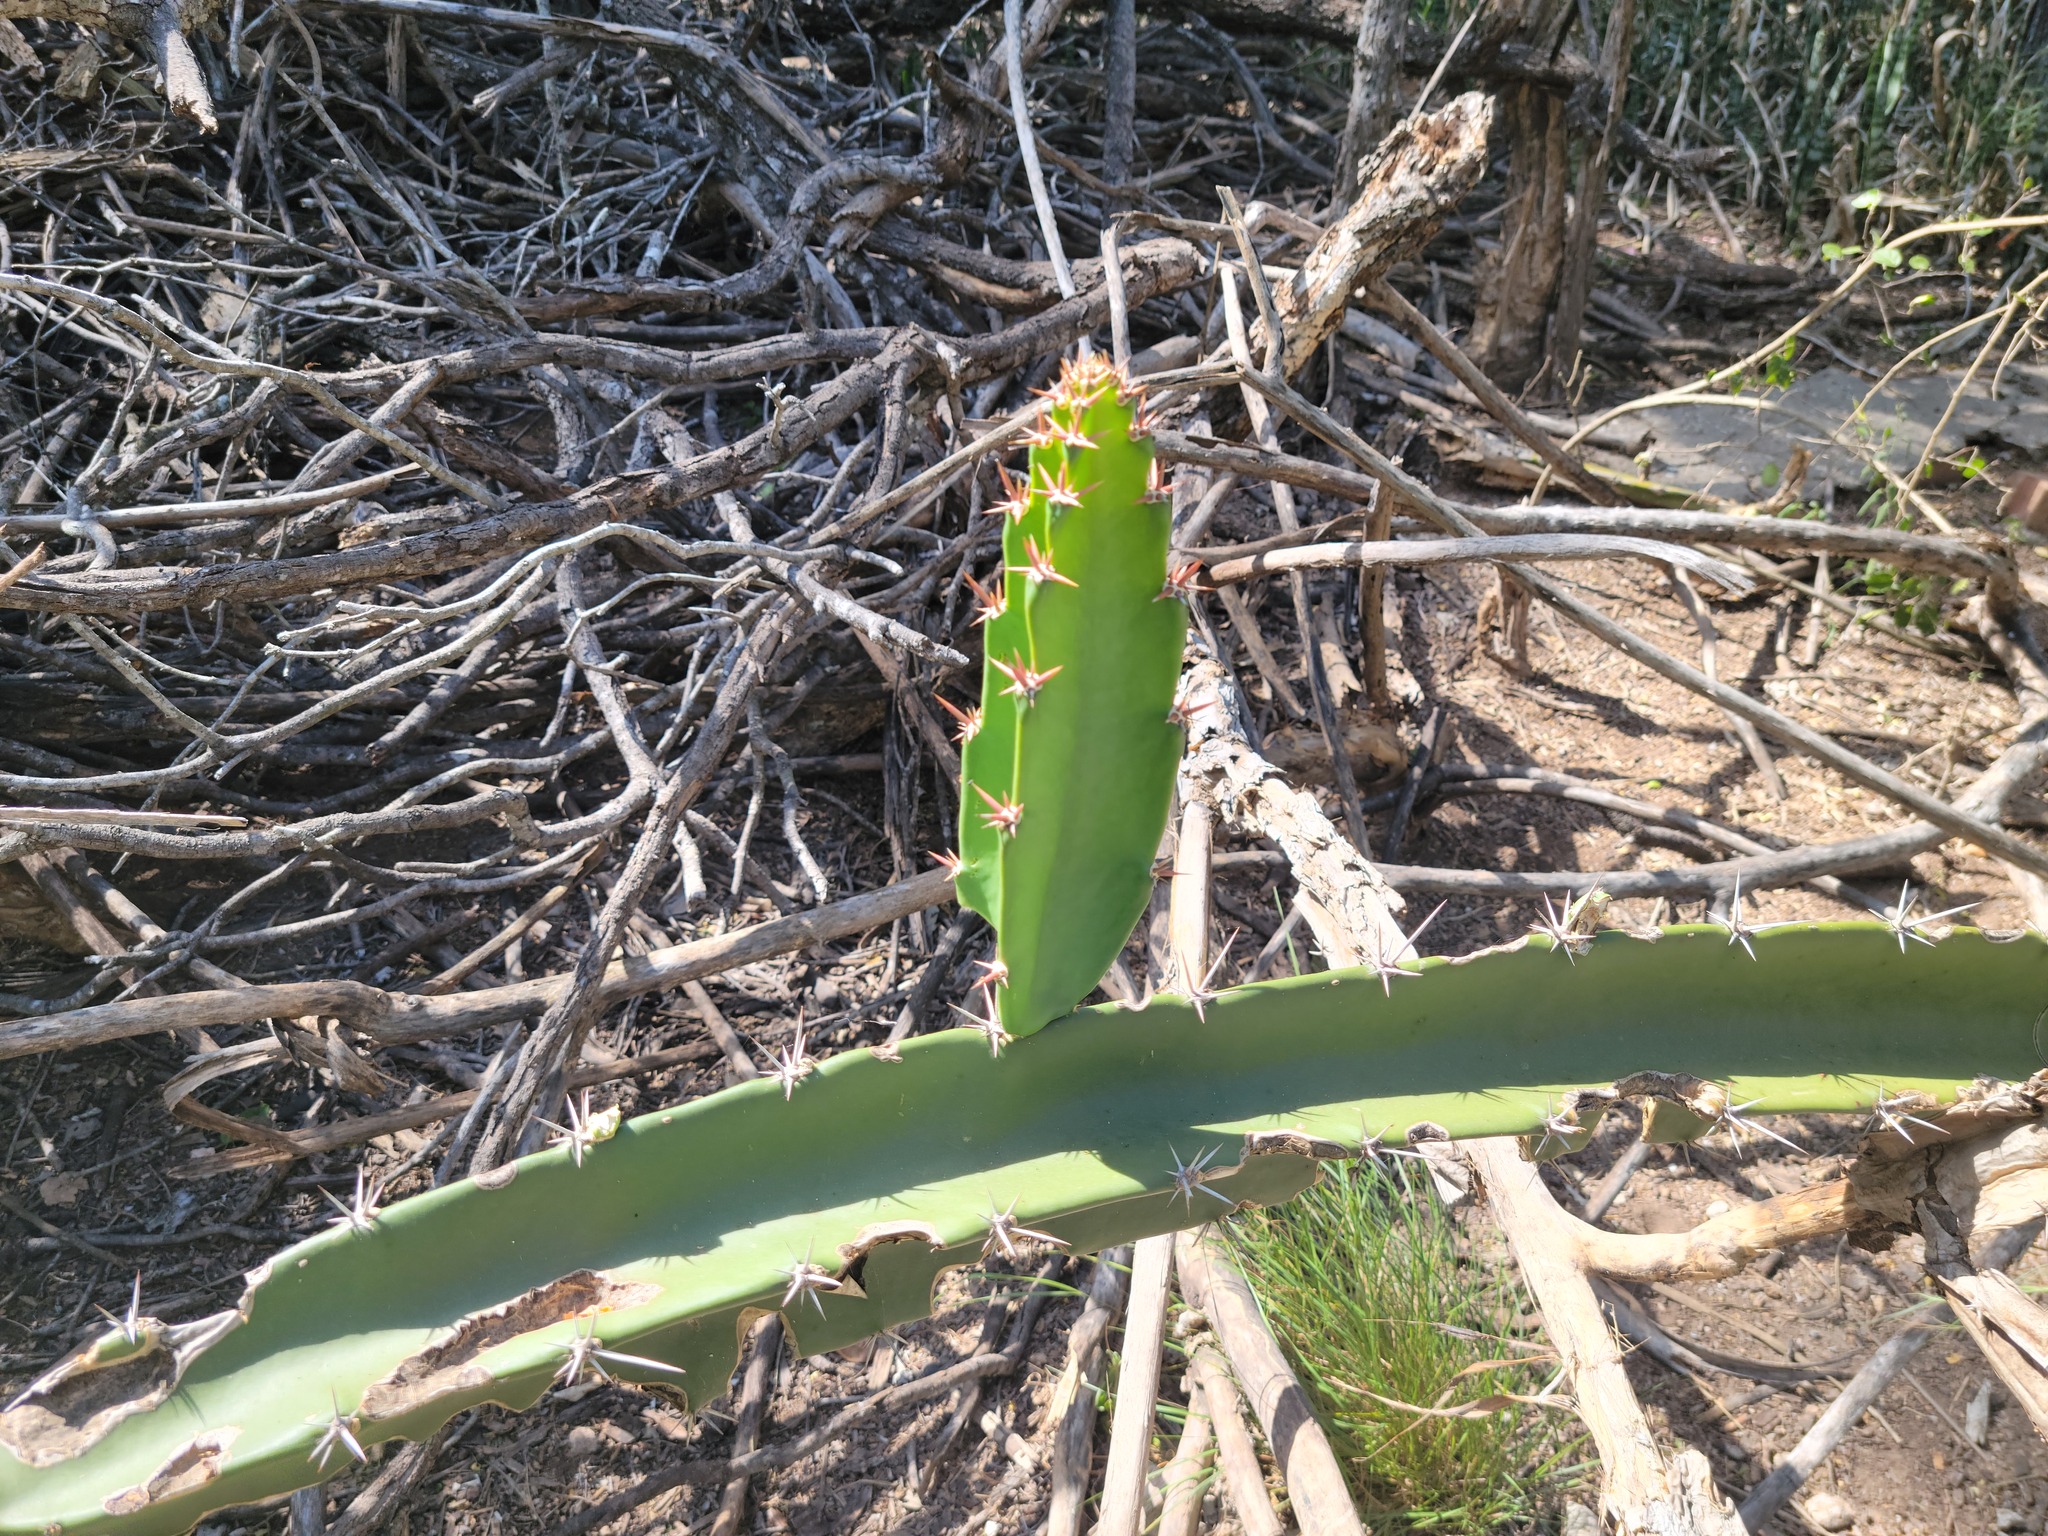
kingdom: Plantae
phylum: Tracheophyta
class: Magnoliopsida
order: Caryophyllales
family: Cactaceae
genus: Acanthocereus
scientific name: Acanthocereus tetragonus
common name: Triangle cactus
